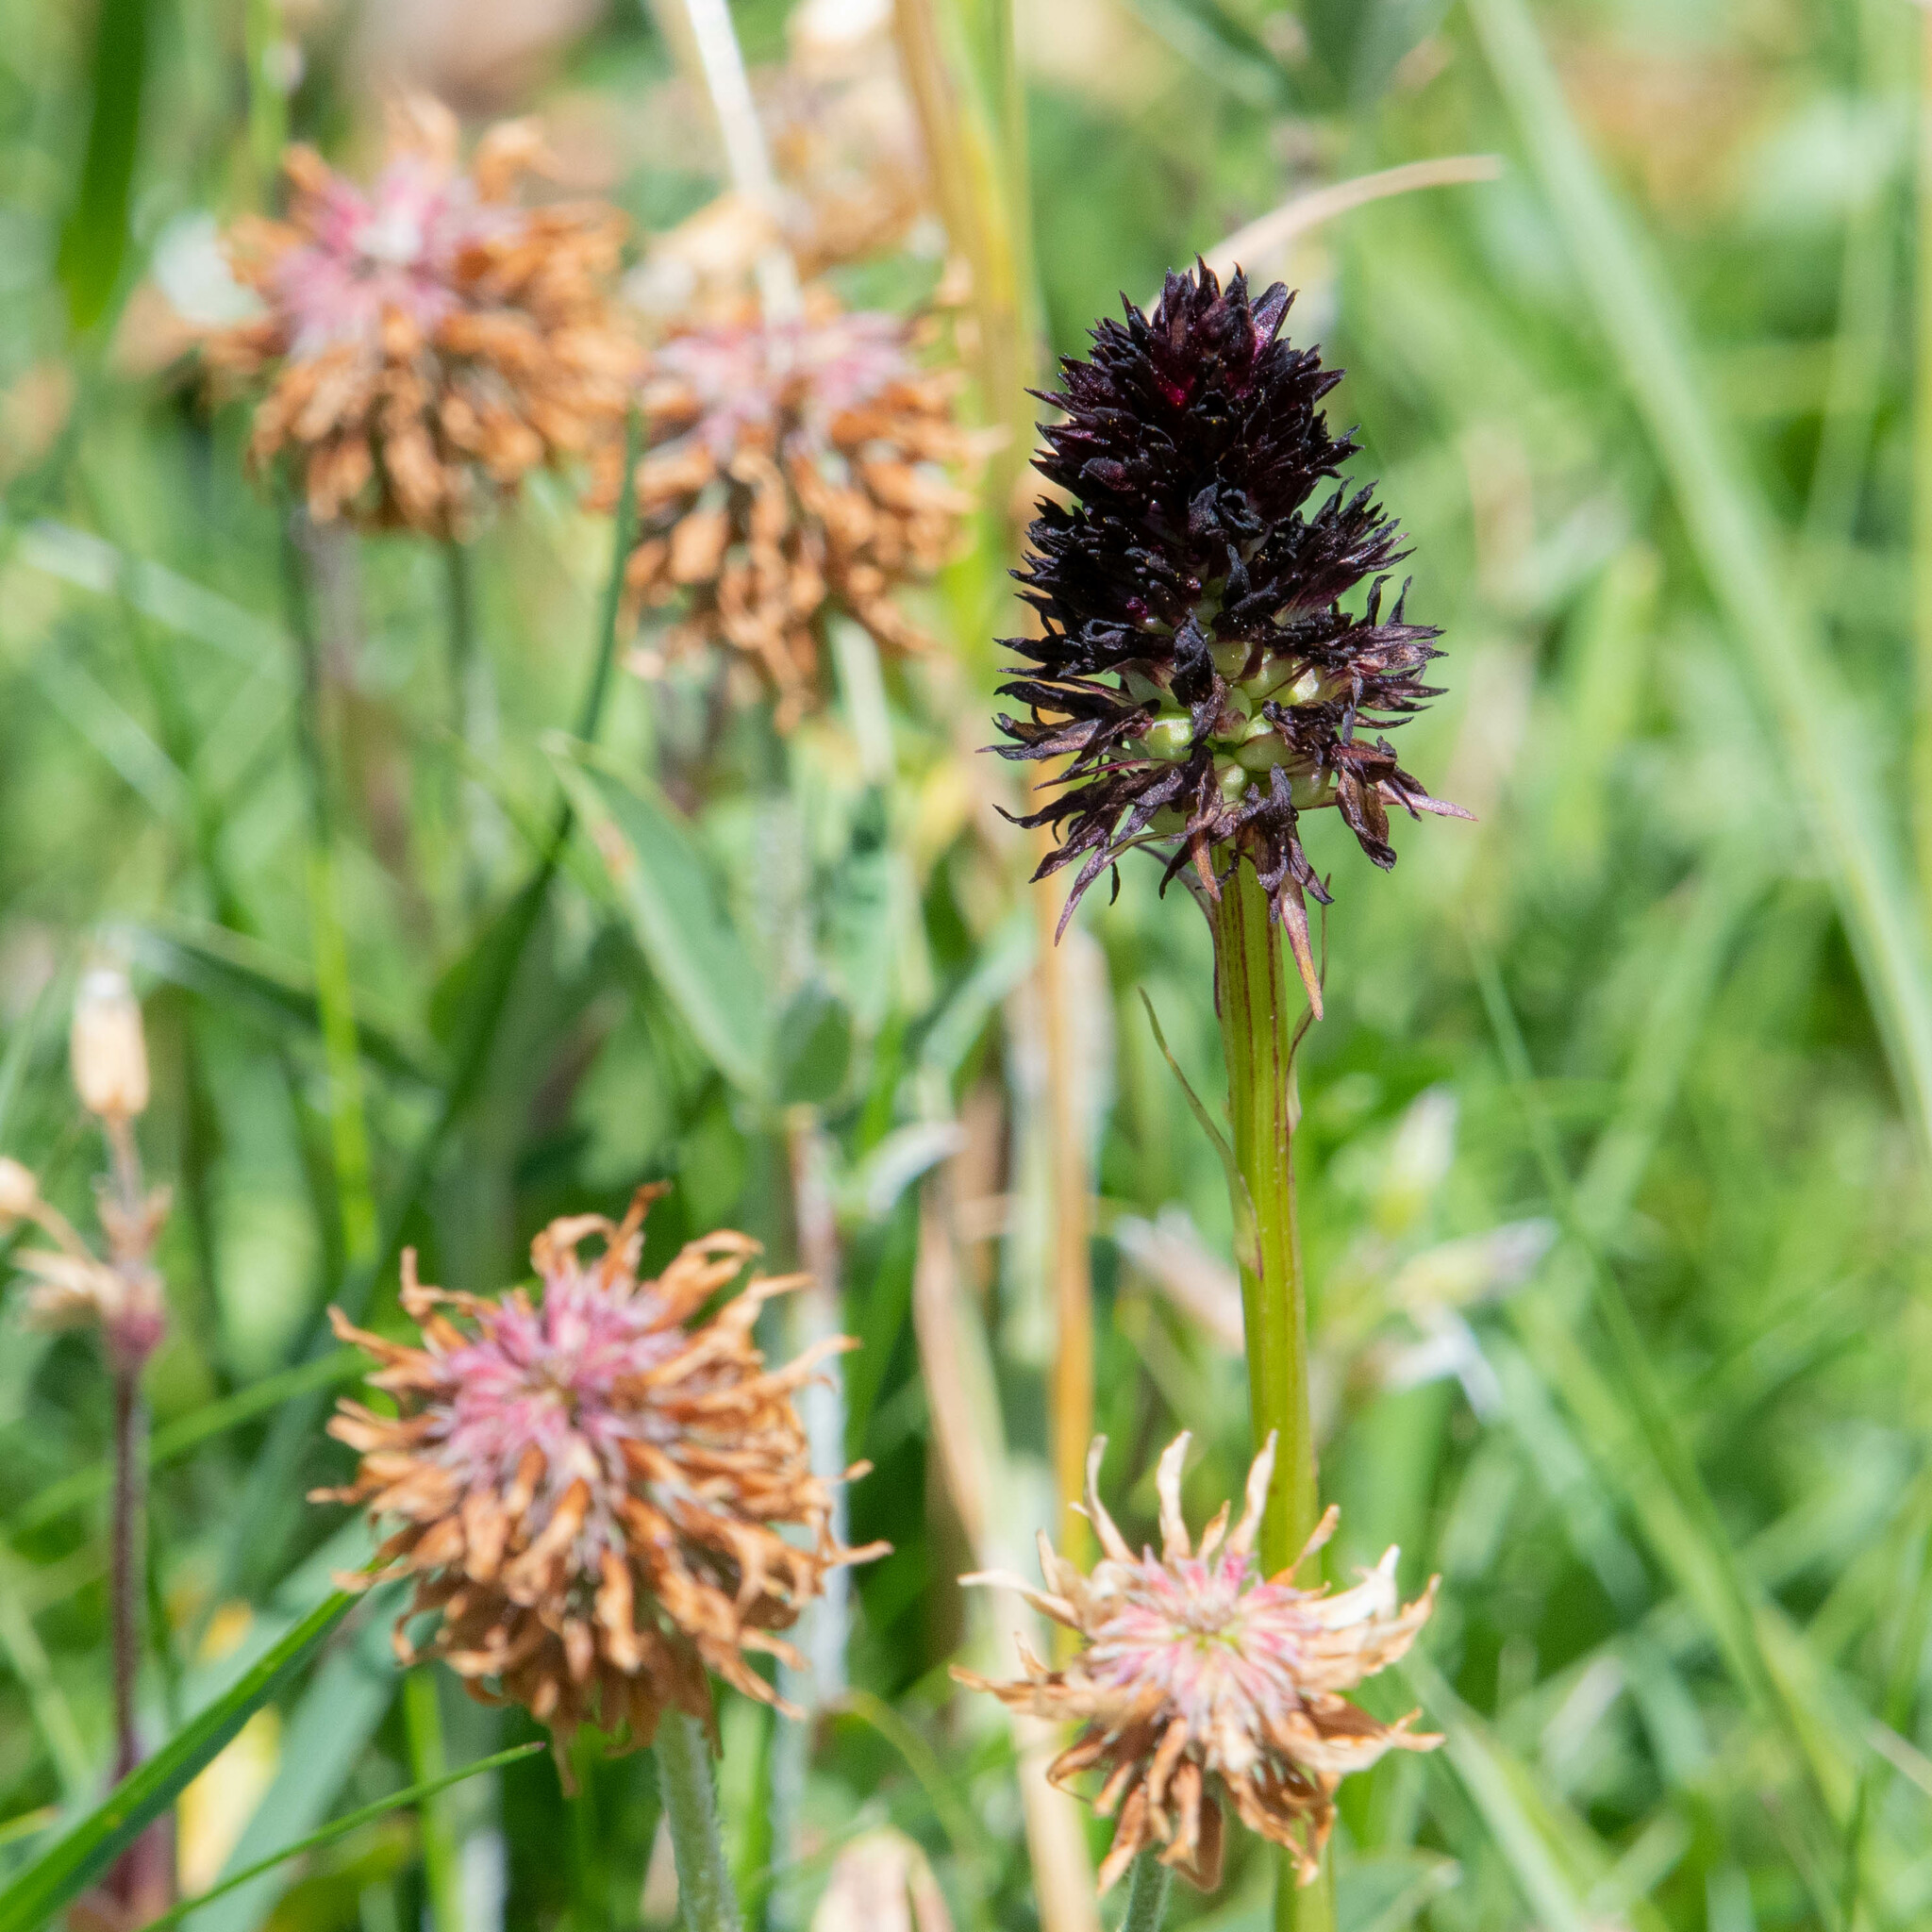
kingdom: Plantae
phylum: Tracheophyta
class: Liliopsida
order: Asparagales
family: Orchidaceae
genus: Gymnadenia
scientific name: Gymnadenia rhellicani
